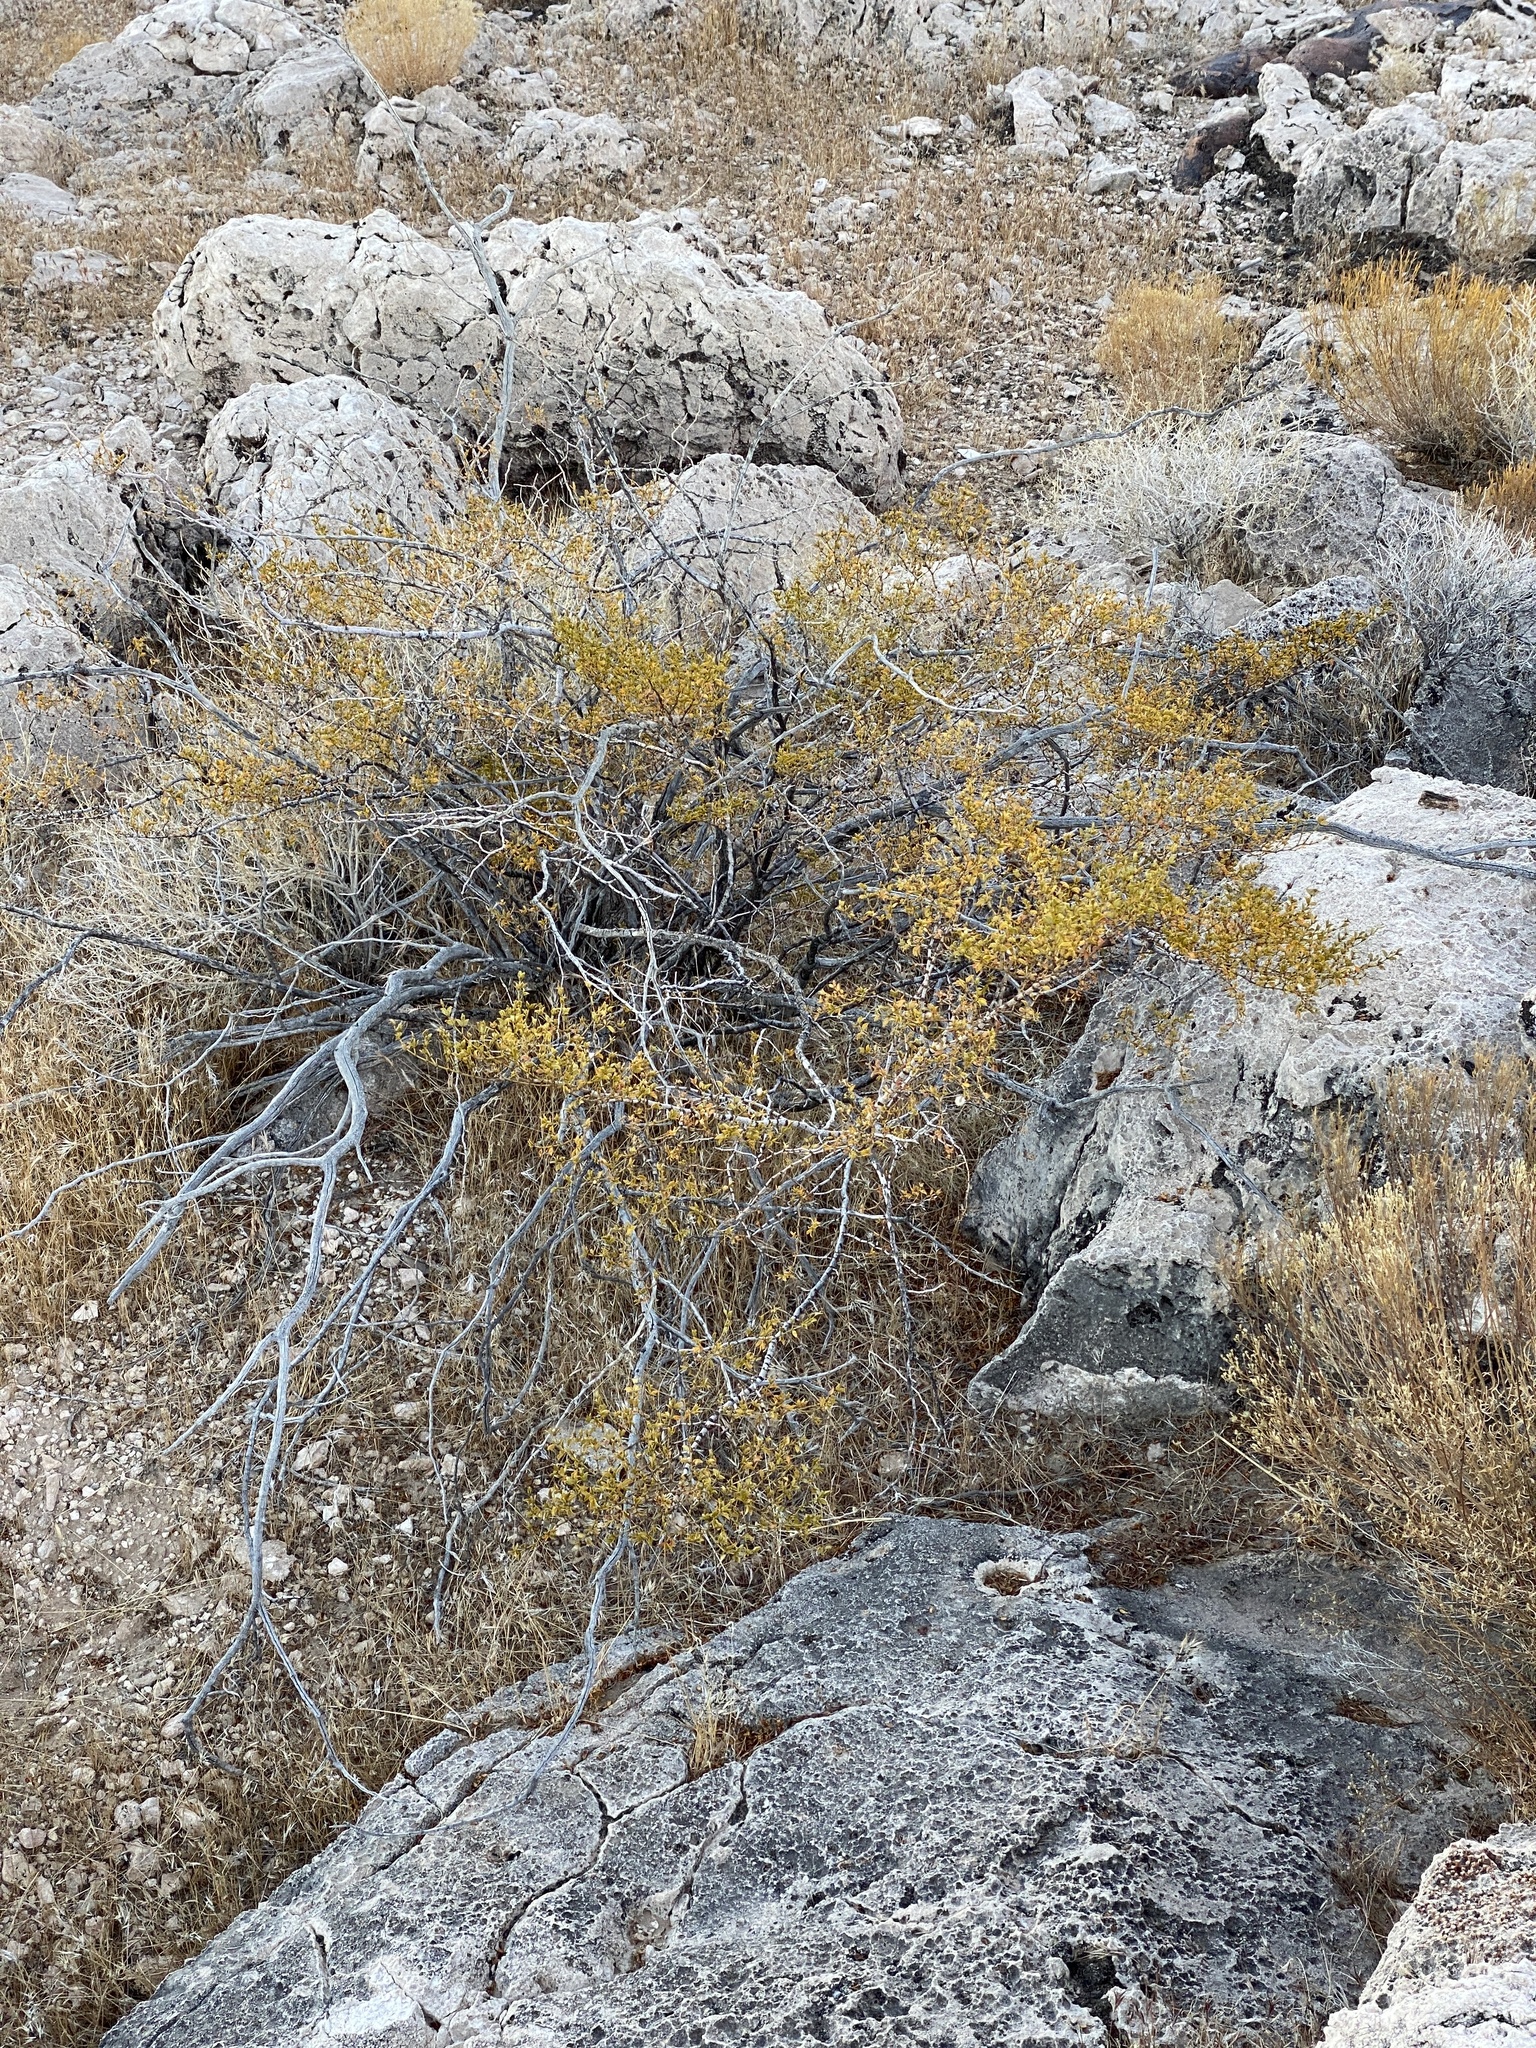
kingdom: Plantae
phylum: Tracheophyta
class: Magnoliopsida
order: Zygophyllales
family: Zygophyllaceae
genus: Larrea
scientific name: Larrea tridentata
